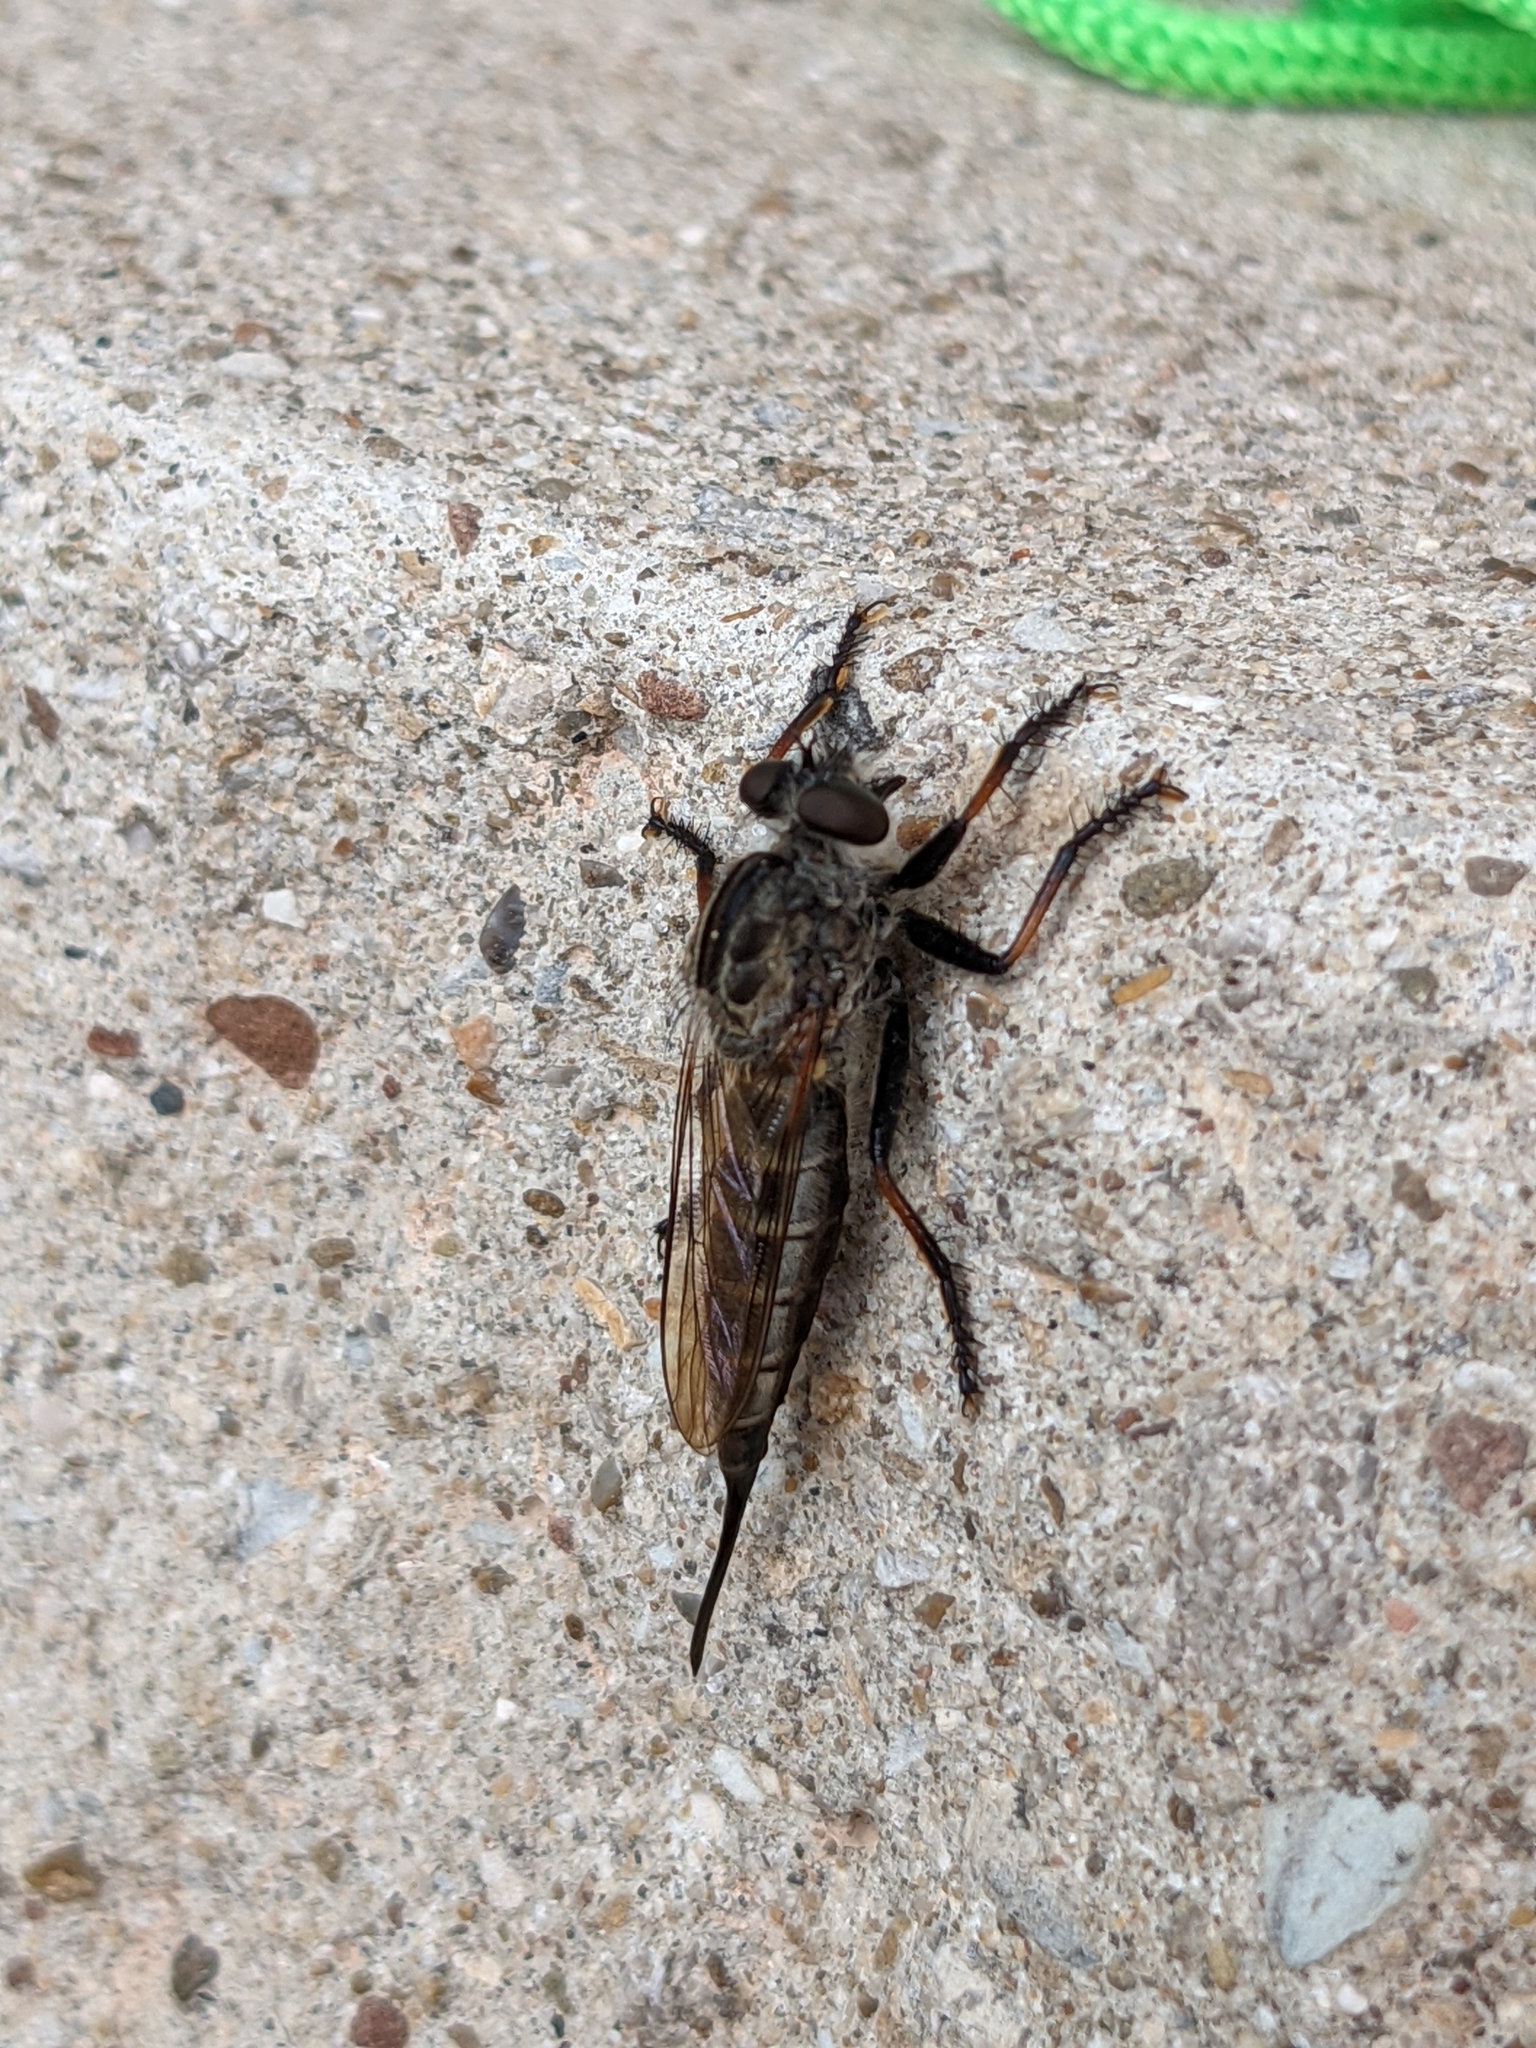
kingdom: Animalia
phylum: Arthropoda
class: Insecta
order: Diptera
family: Asilidae
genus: Efferia
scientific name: Efferia aestuans
